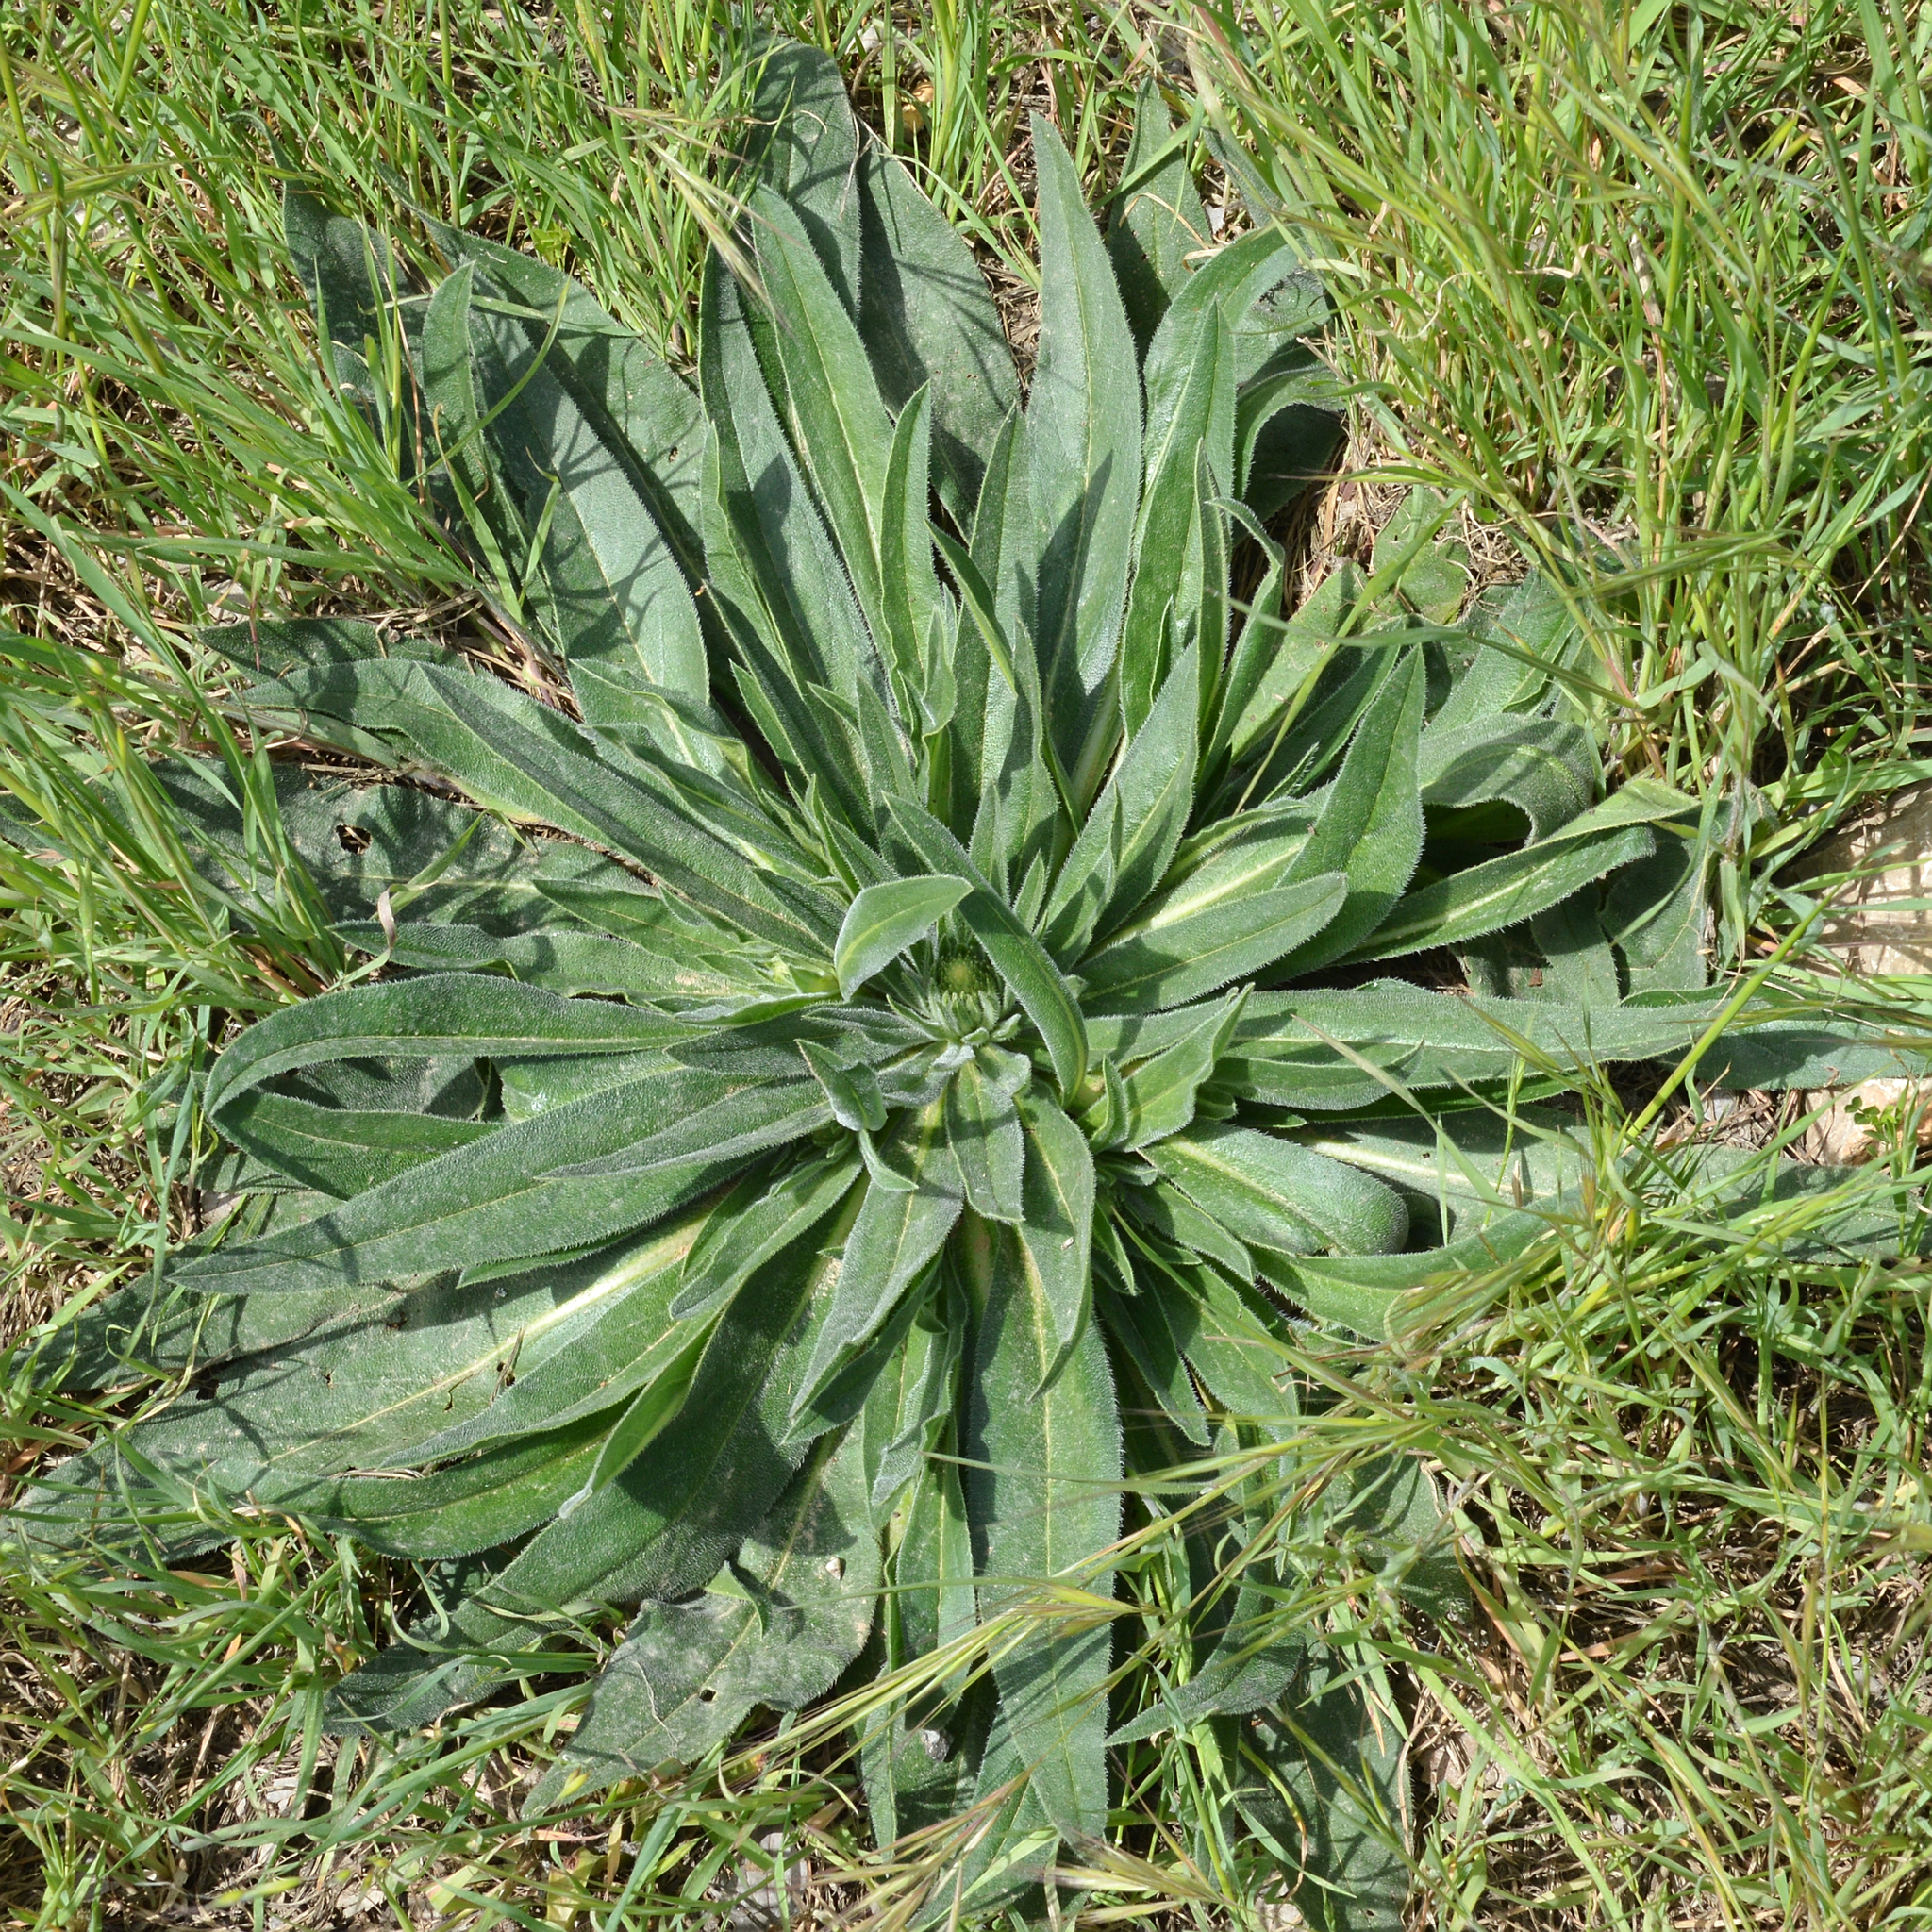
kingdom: Plantae
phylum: Tracheophyta
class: Magnoliopsida
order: Boraginales
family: Boraginaceae
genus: Echium
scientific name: Echium italicum
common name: Italian viper's bugloss
